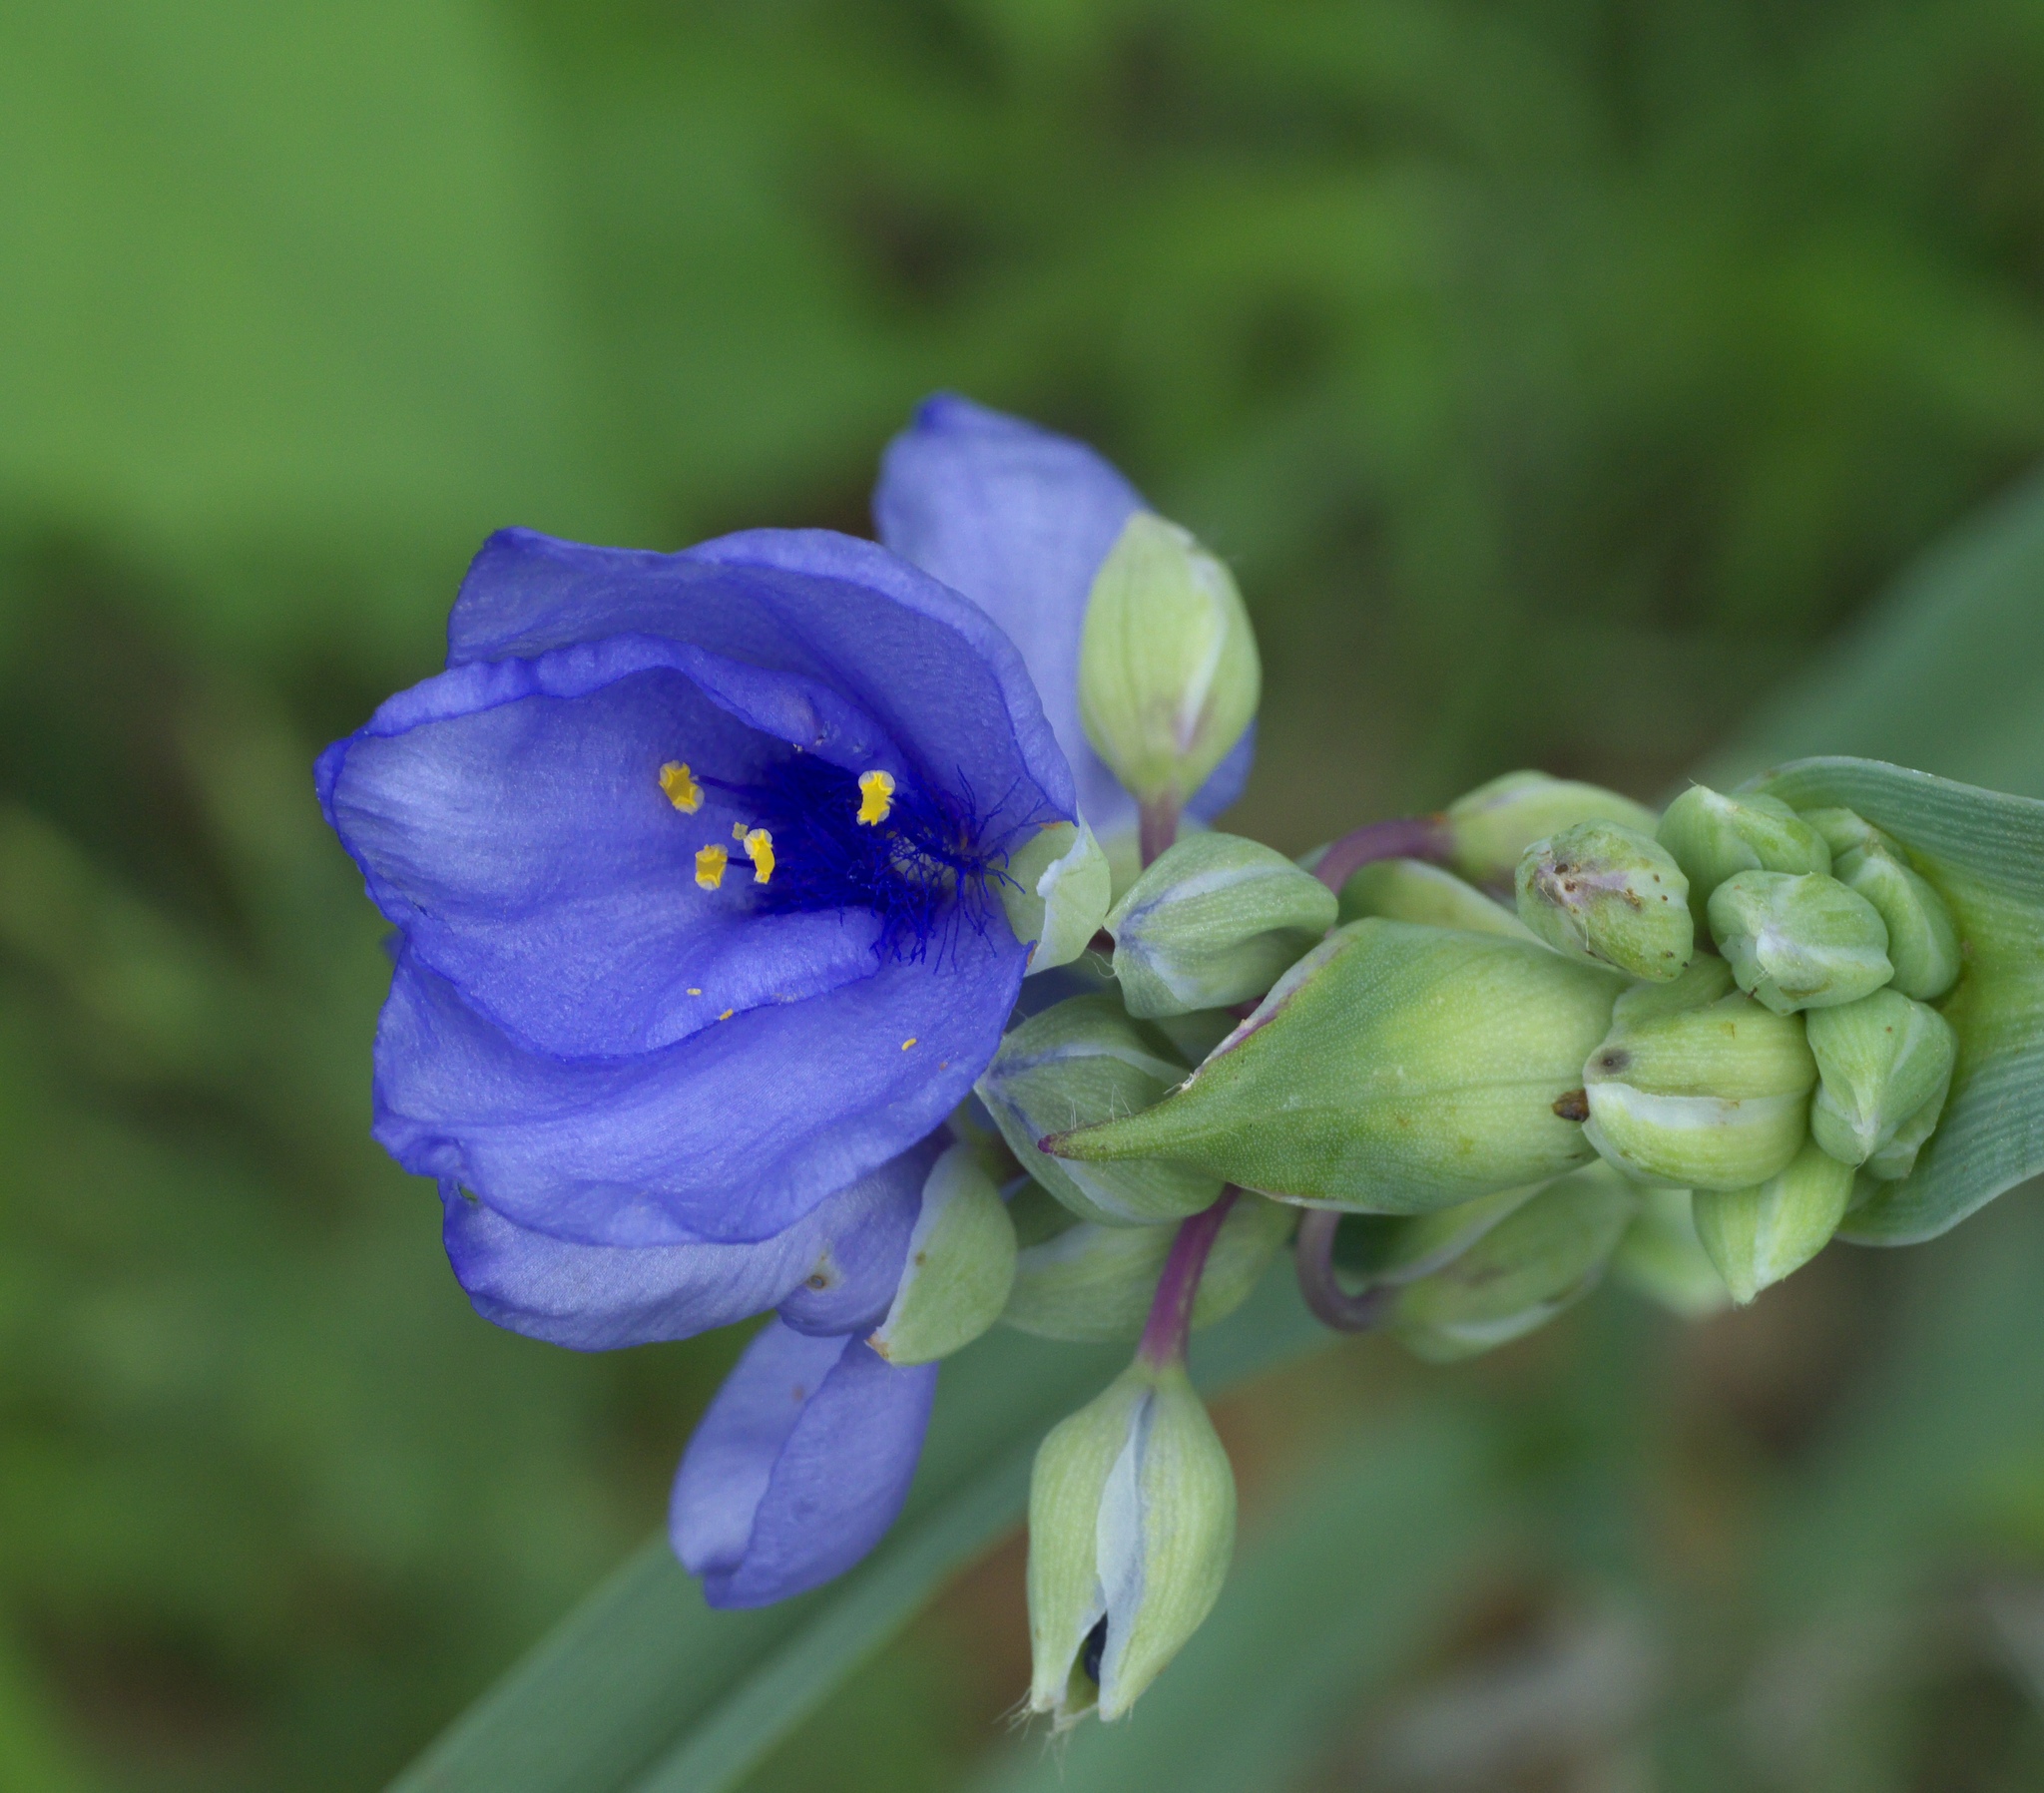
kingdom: Plantae
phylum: Tracheophyta
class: Liliopsida
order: Commelinales
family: Commelinaceae
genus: Tradescantia
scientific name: Tradescantia ohiensis
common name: Ohio spiderwort
